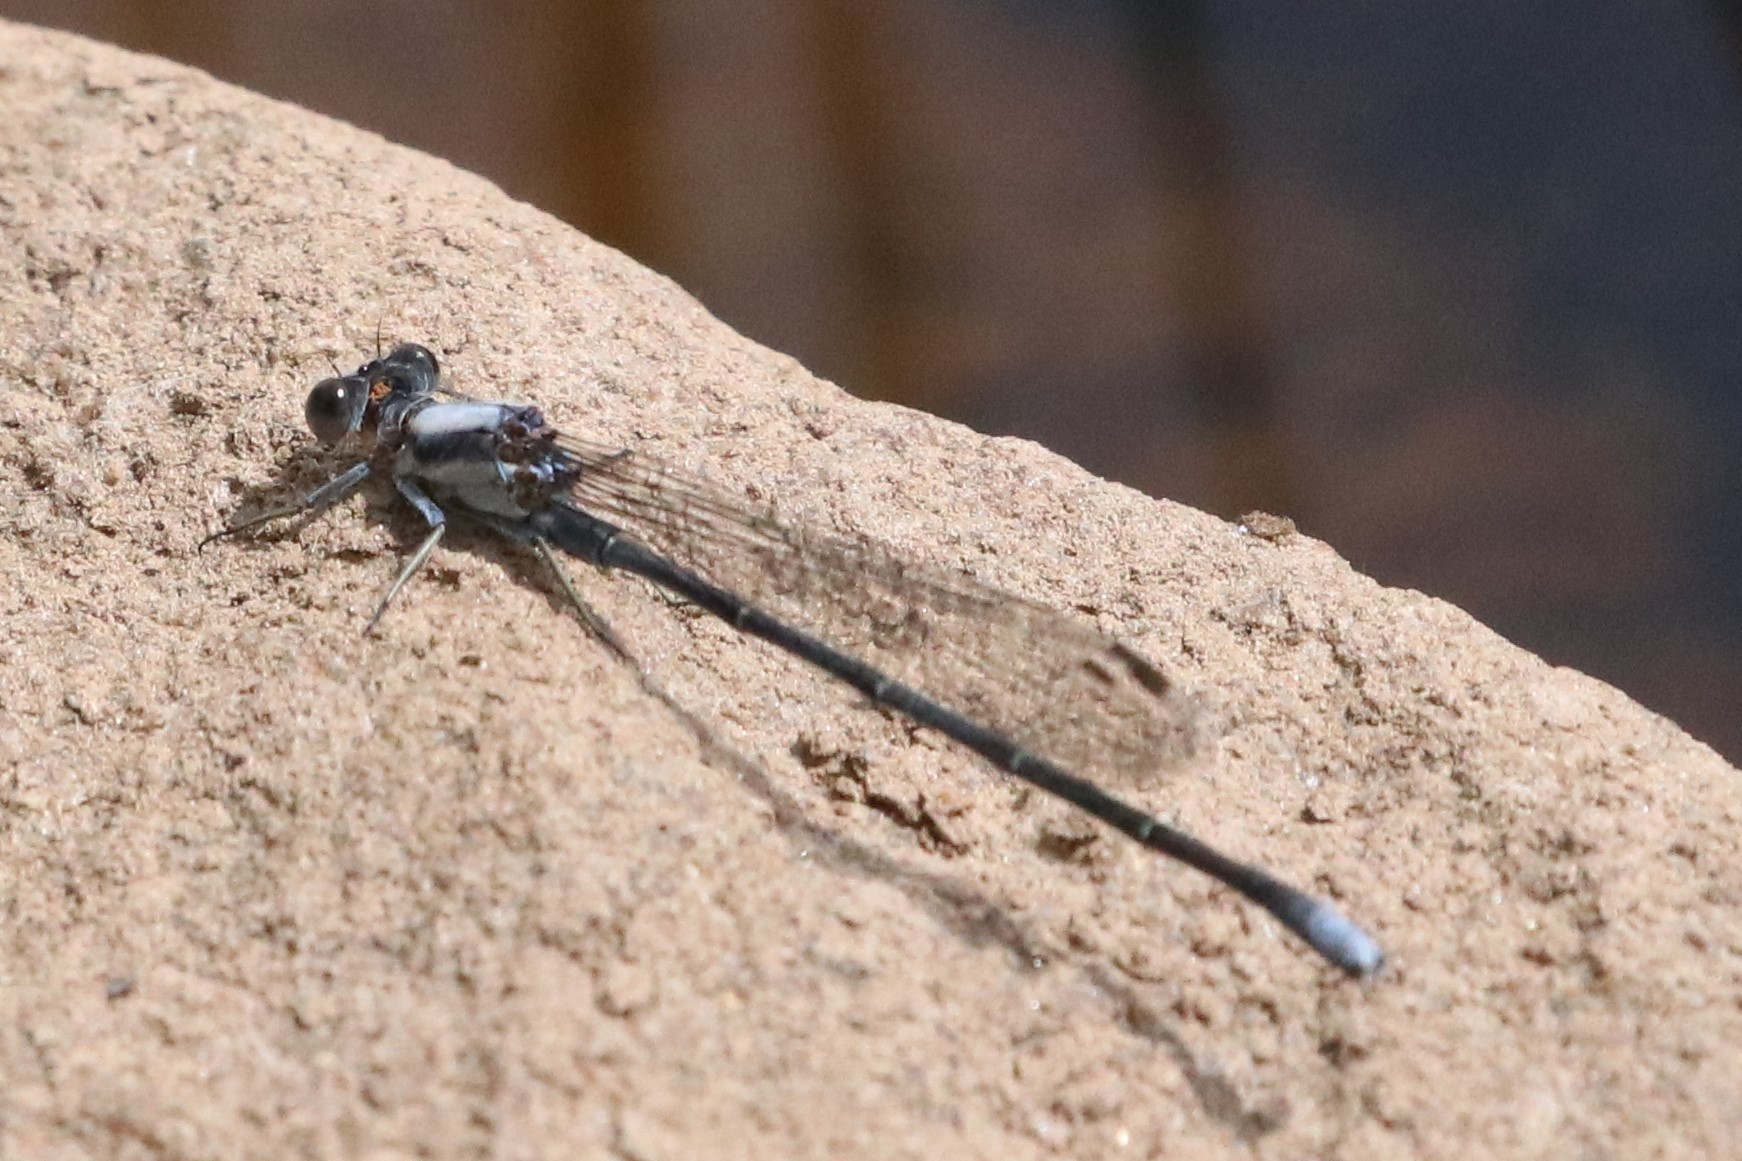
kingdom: Animalia
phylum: Arthropoda
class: Insecta
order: Odonata
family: Coenagrionidae
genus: Argia
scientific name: Argia moesta
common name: Powdered dancer
